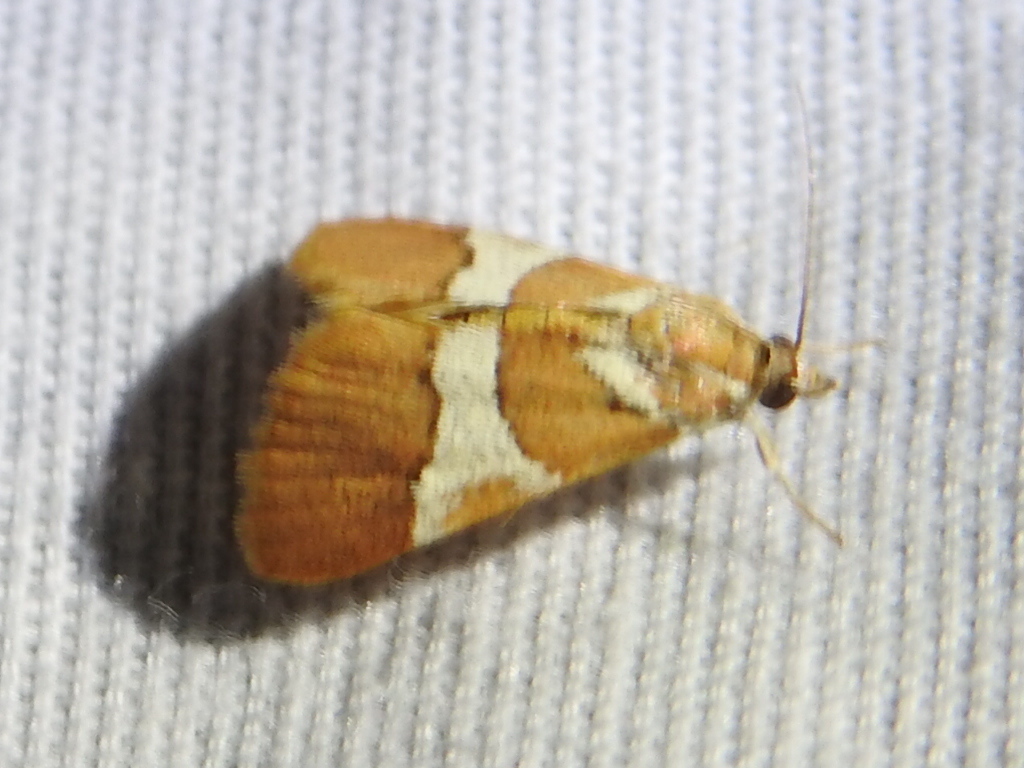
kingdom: Animalia
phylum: Arthropoda
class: Insecta
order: Lepidoptera
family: Crambidae
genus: Jativa
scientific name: Jativa castanealis
